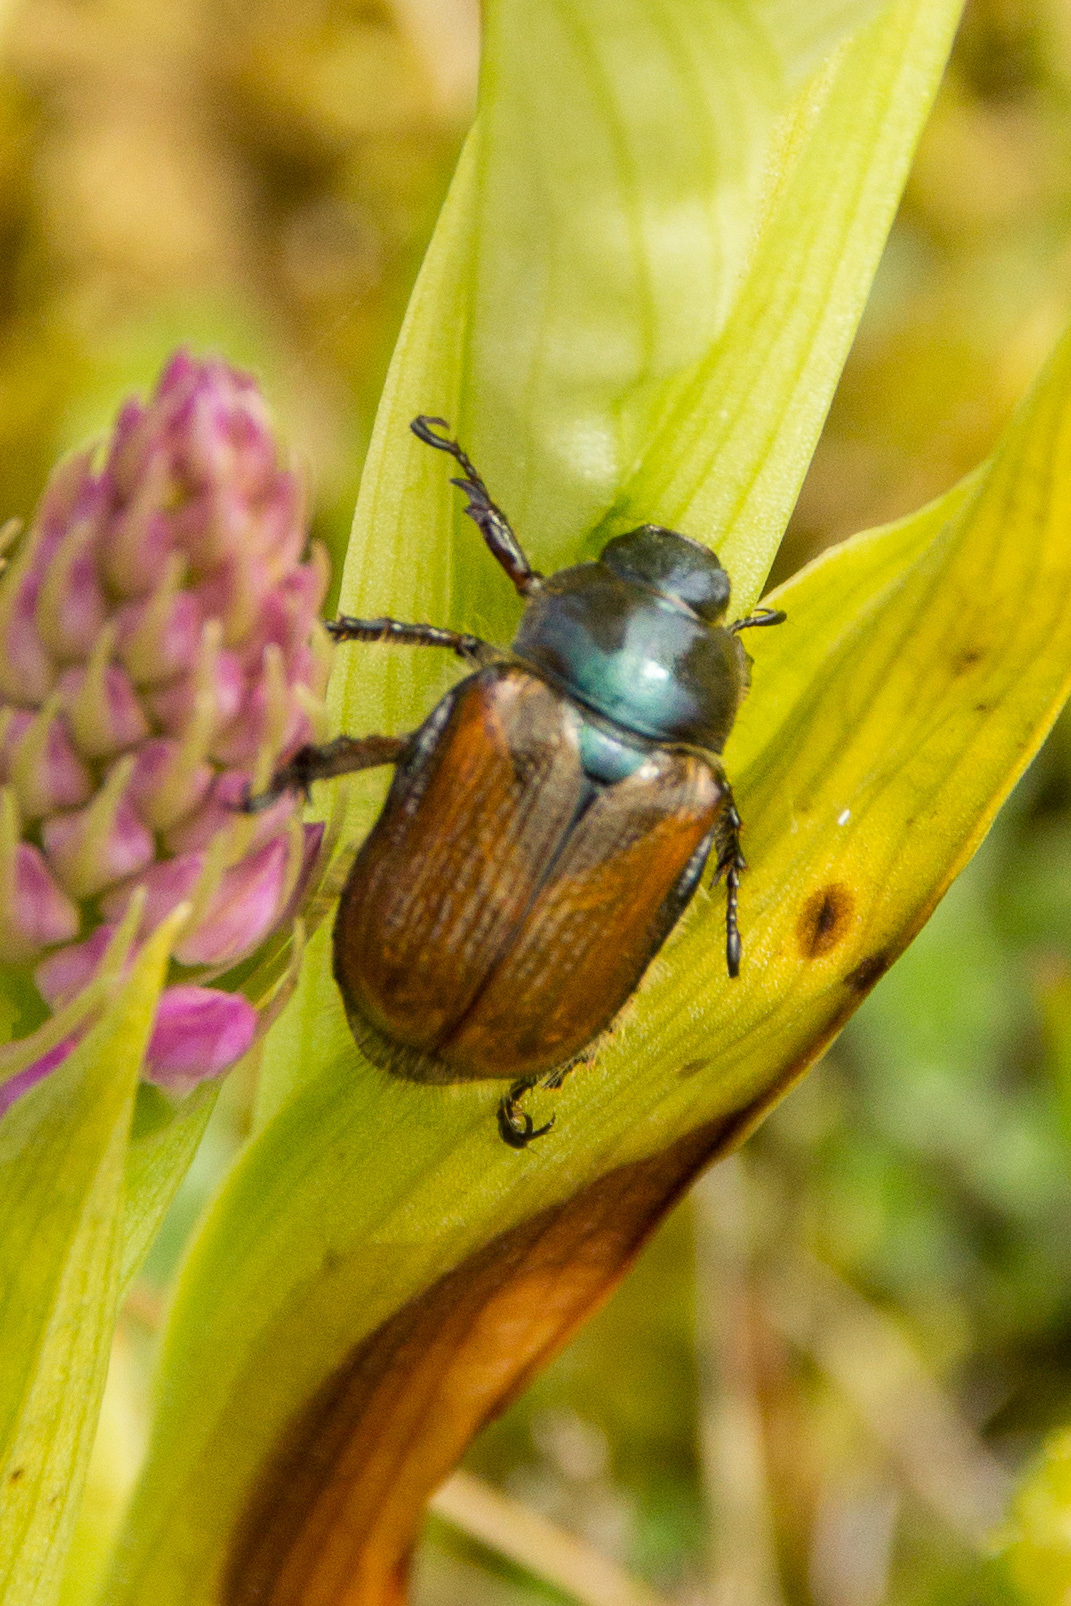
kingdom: Animalia
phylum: Arthropoda
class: Insecta
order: Coleoptera
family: Scarabaeidae
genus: Phyllopertha
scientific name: Phyllopertha horticola
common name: Garden chafer
